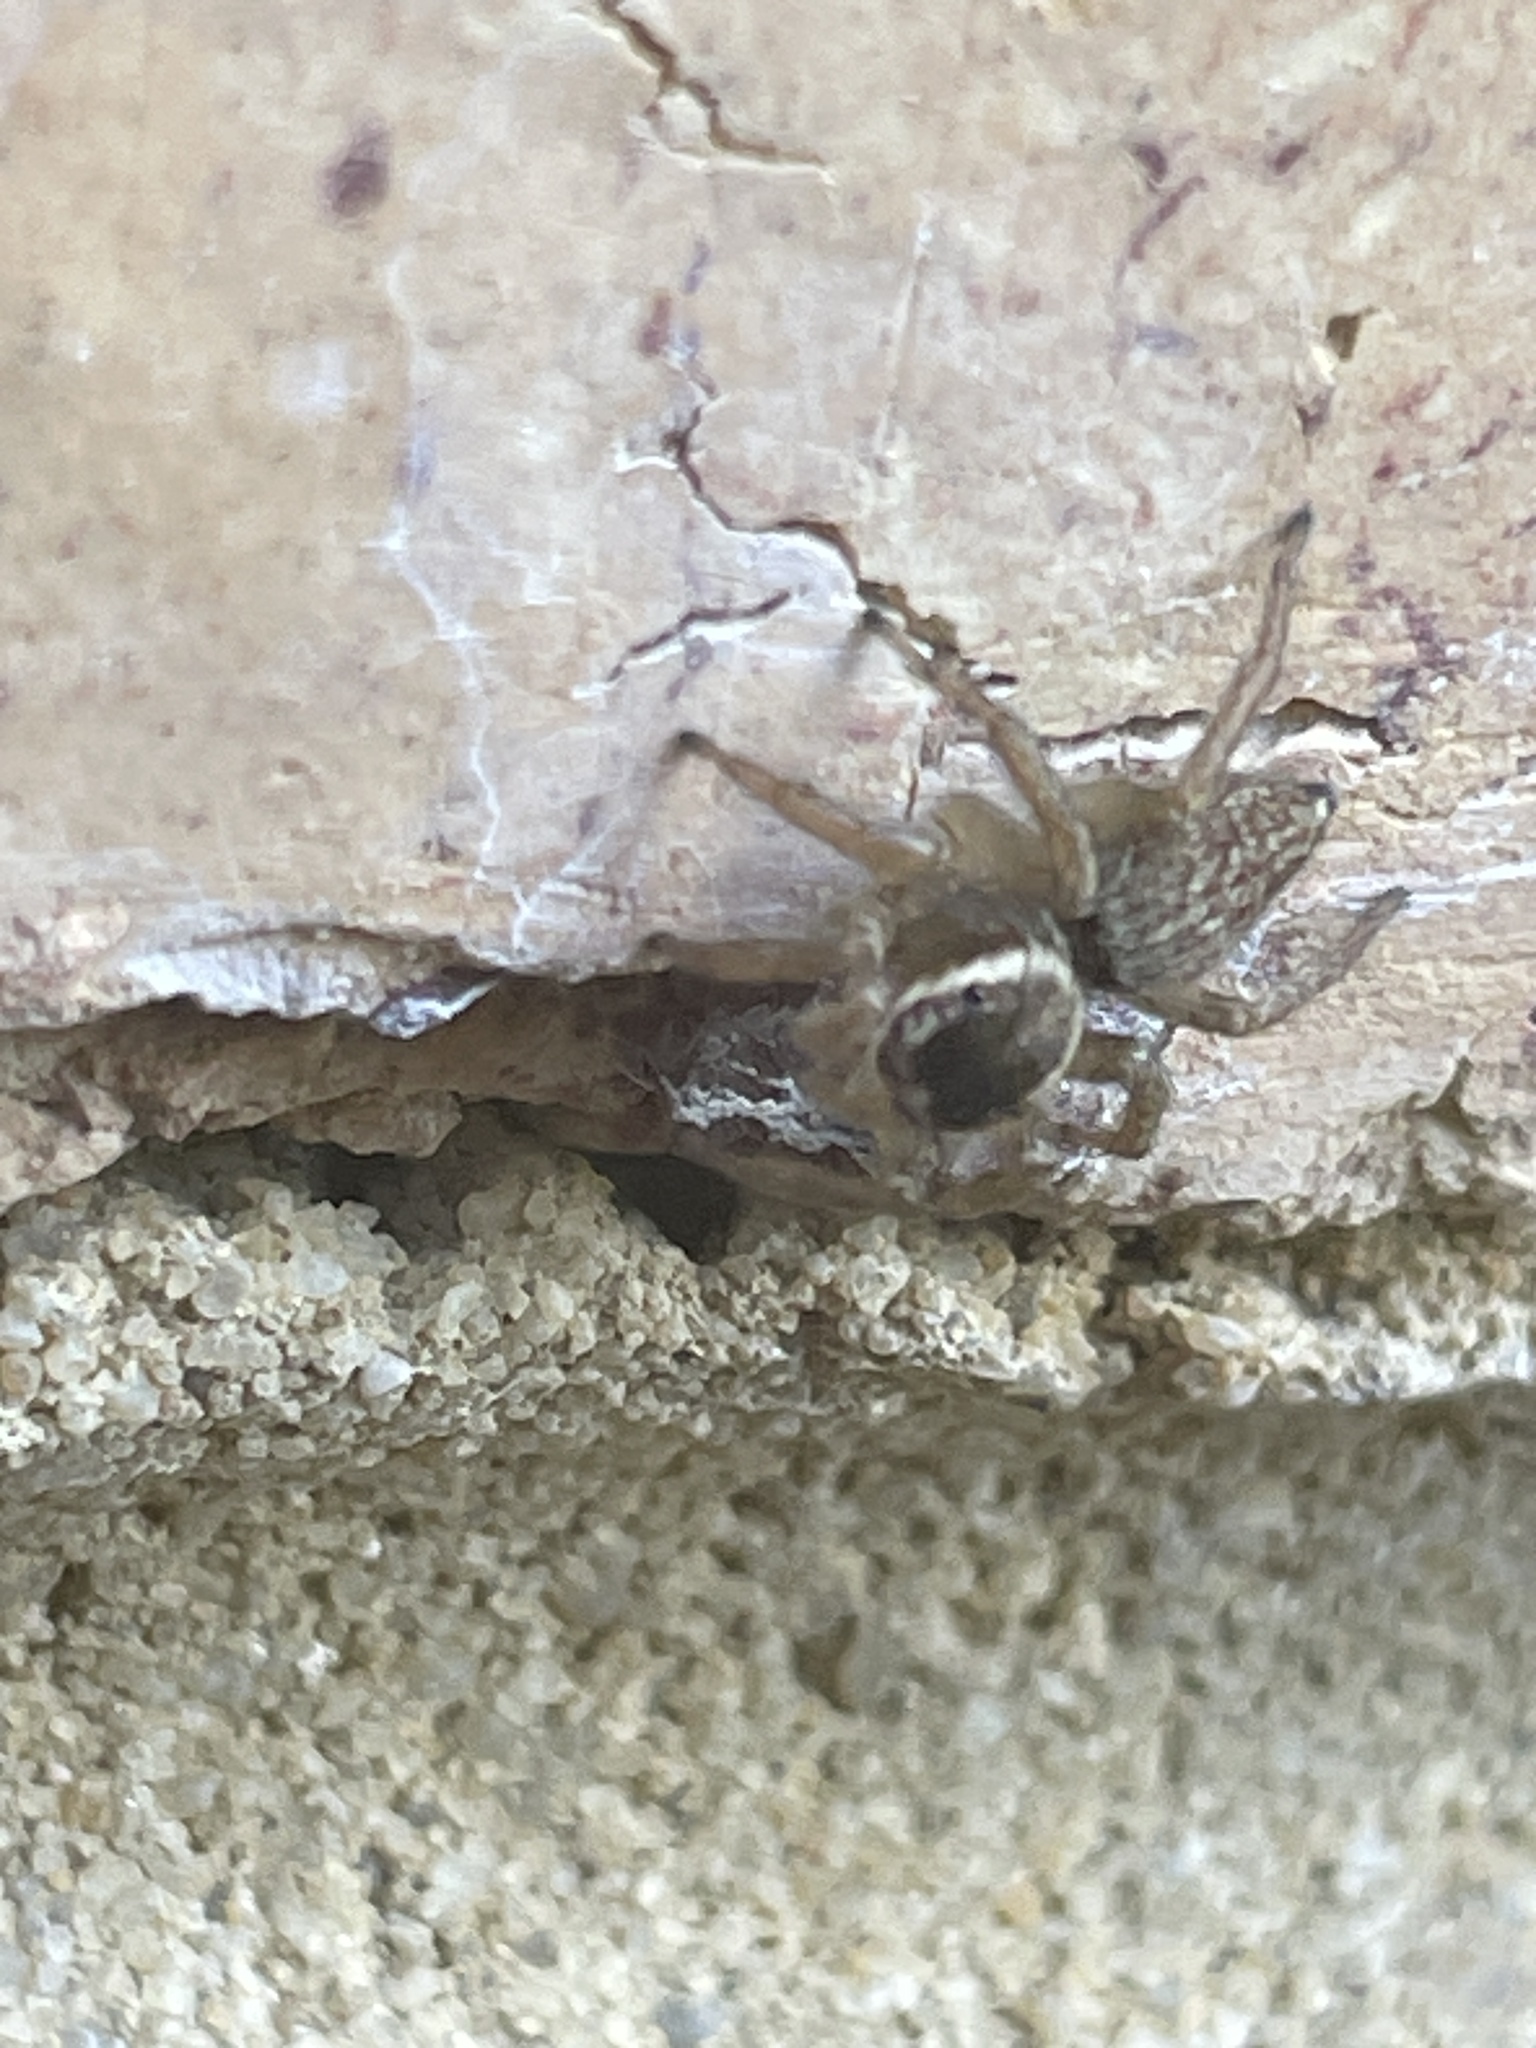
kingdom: Animalia
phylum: Arthropoda
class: Arachnida
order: Araneae
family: Salticidae
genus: Maratus
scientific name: Maratus griseus
